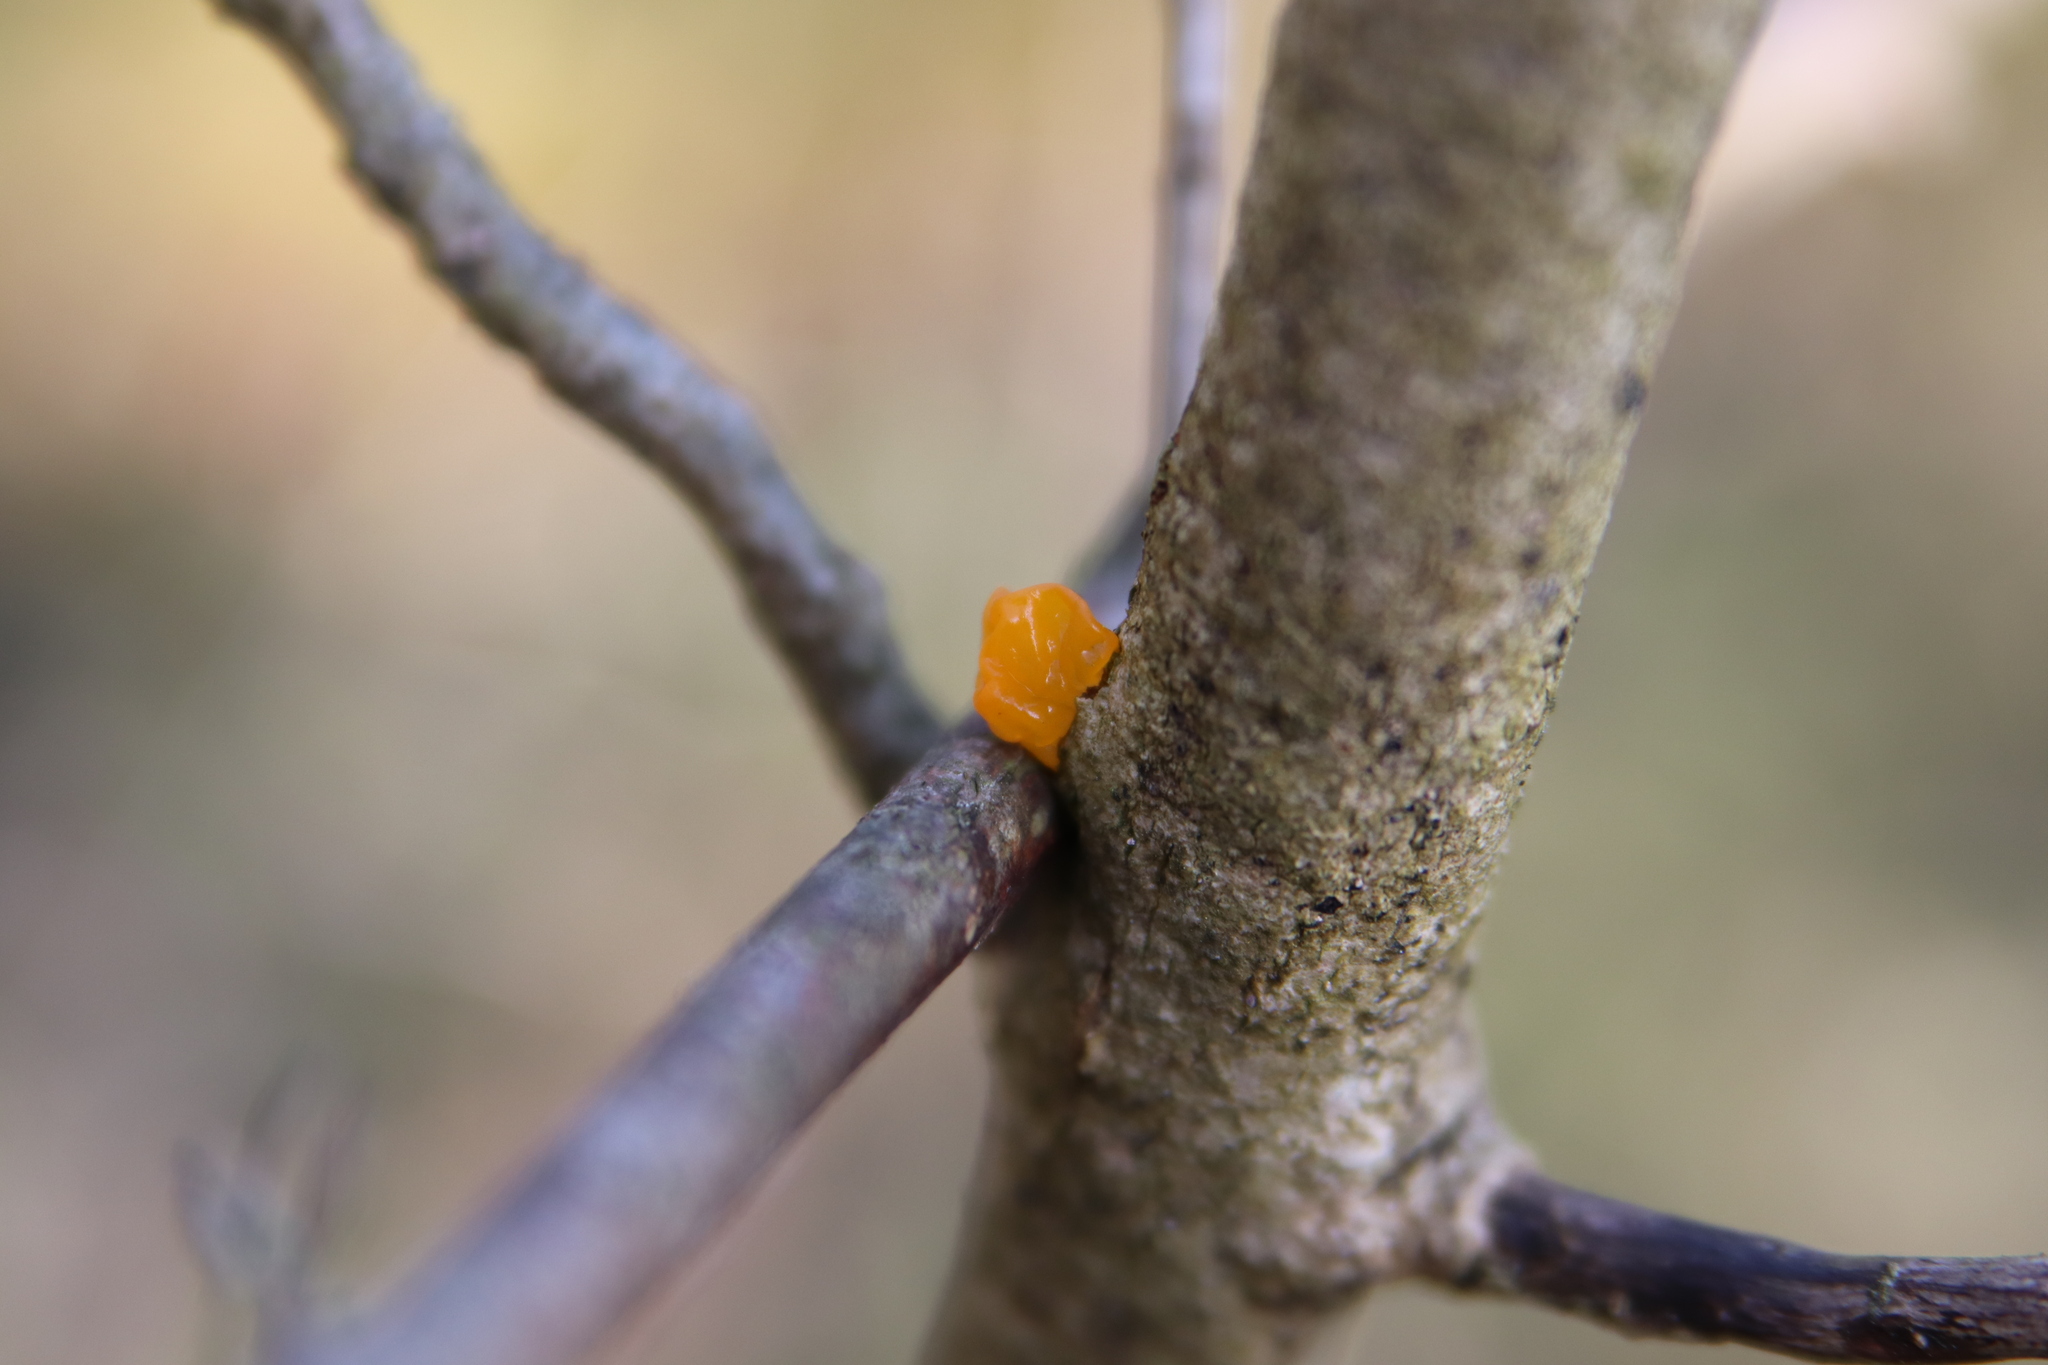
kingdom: Fungi
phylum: Basidiomycota
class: Tremellomycetes
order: Tremellales
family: Tremellaceae
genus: Tremella
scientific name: Tremella mesenterica
